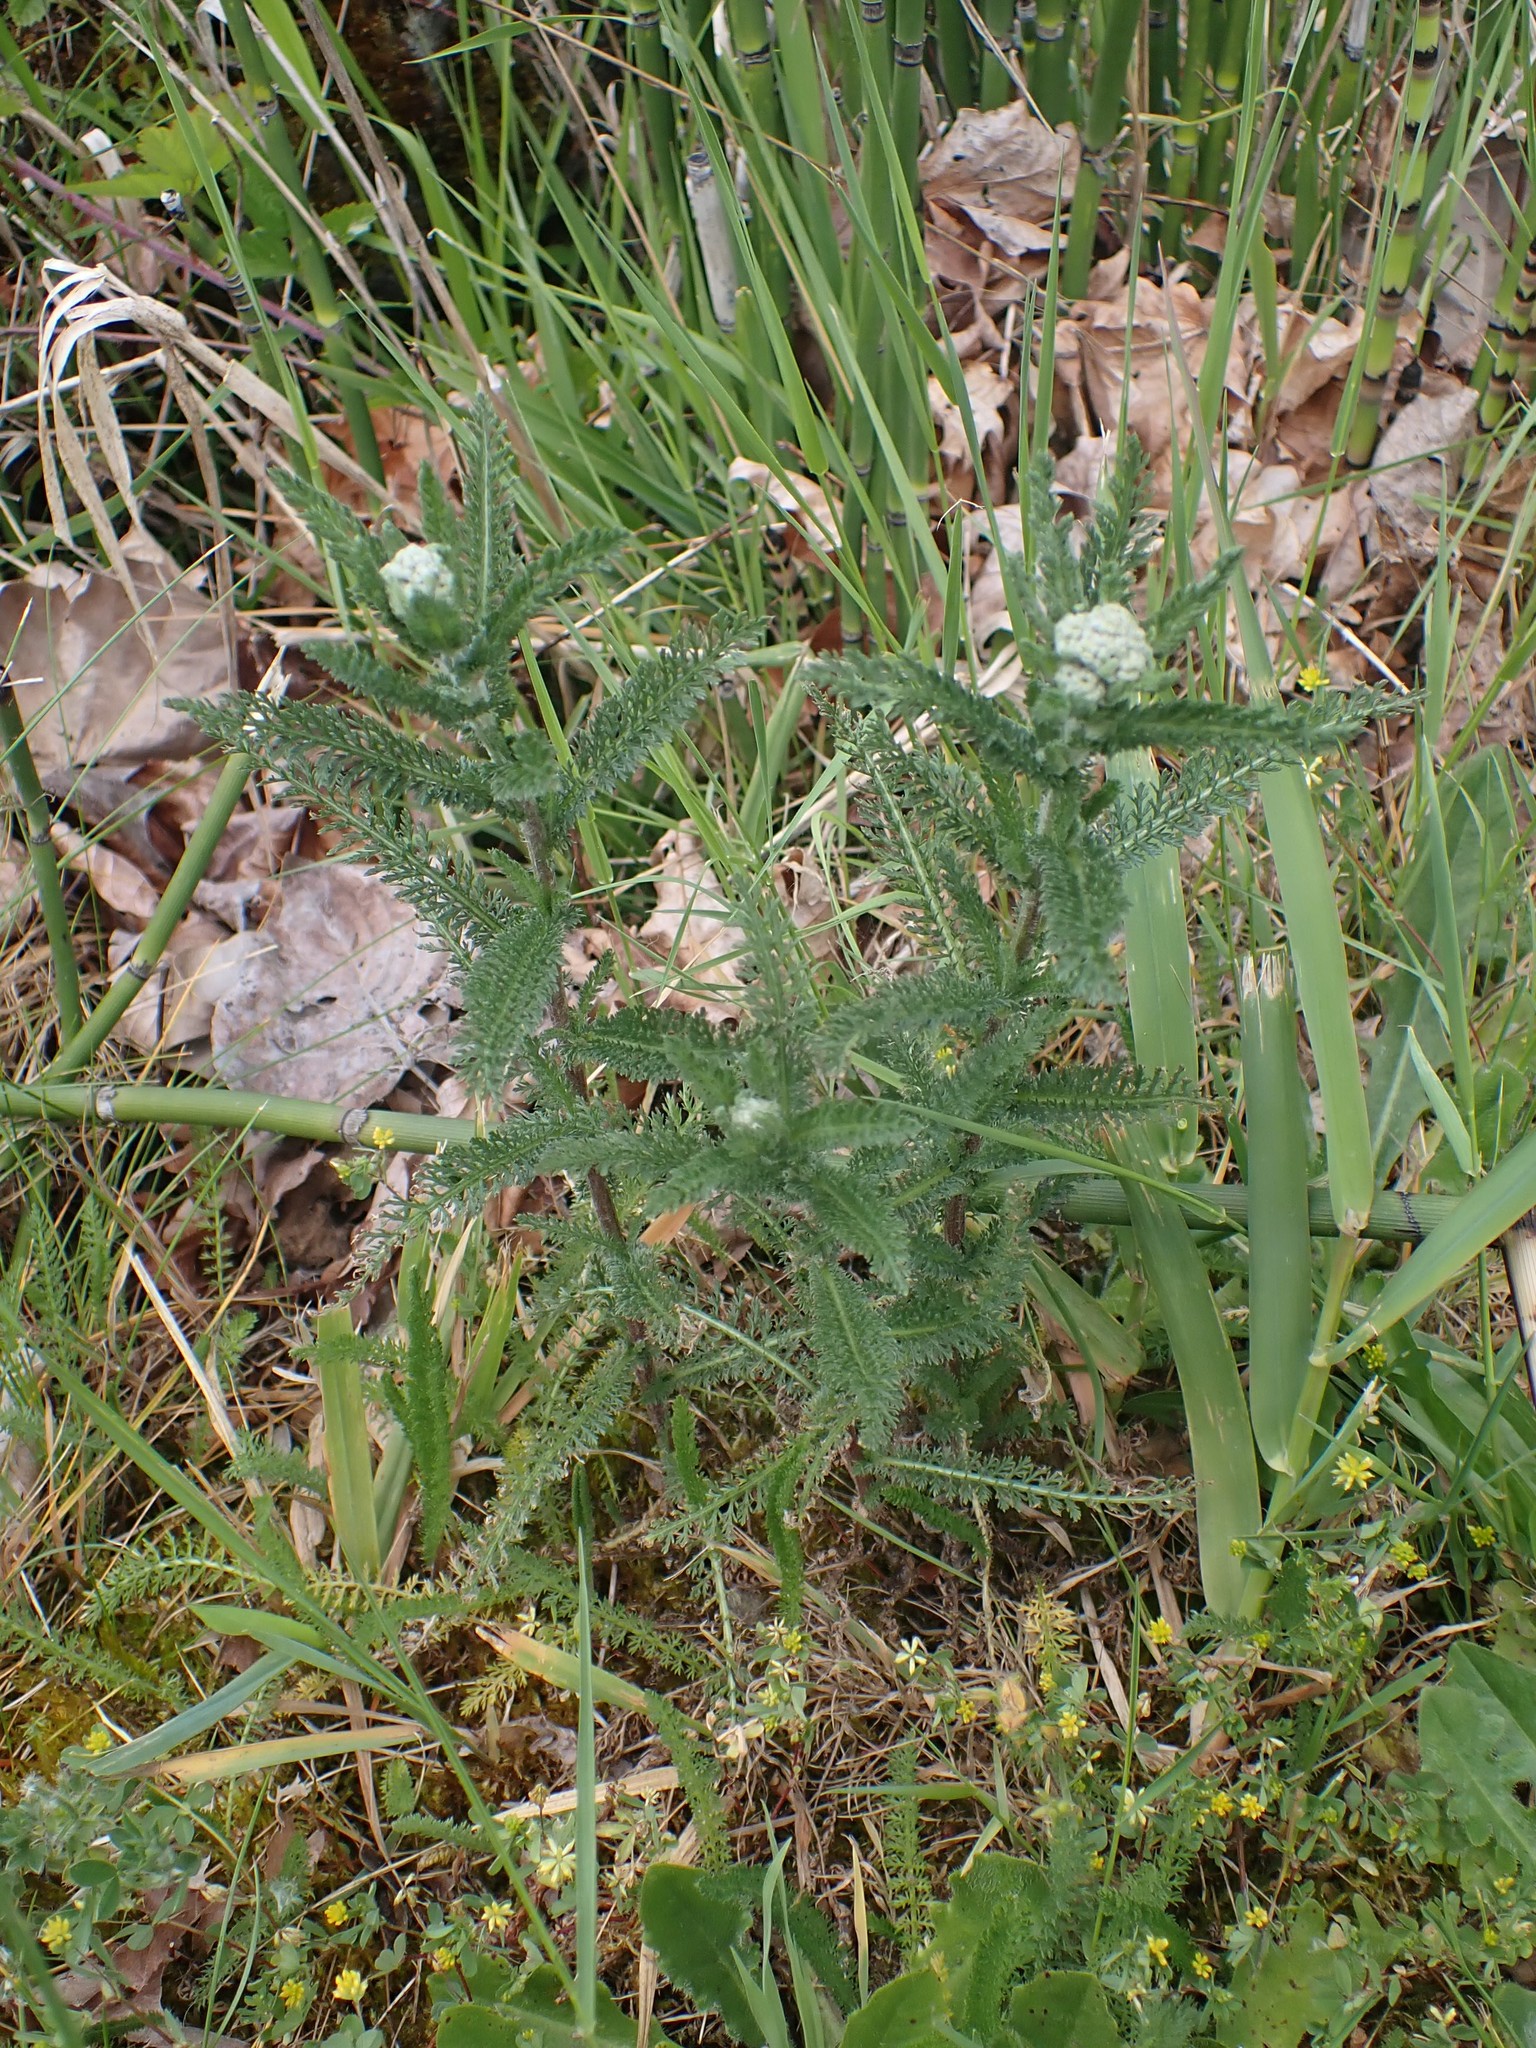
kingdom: Plantae
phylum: Tracheophyta
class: Magnoliopsida
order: Asterales
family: Asteraceae
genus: Achillea
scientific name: Achillea millefolium
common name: Yarrow
